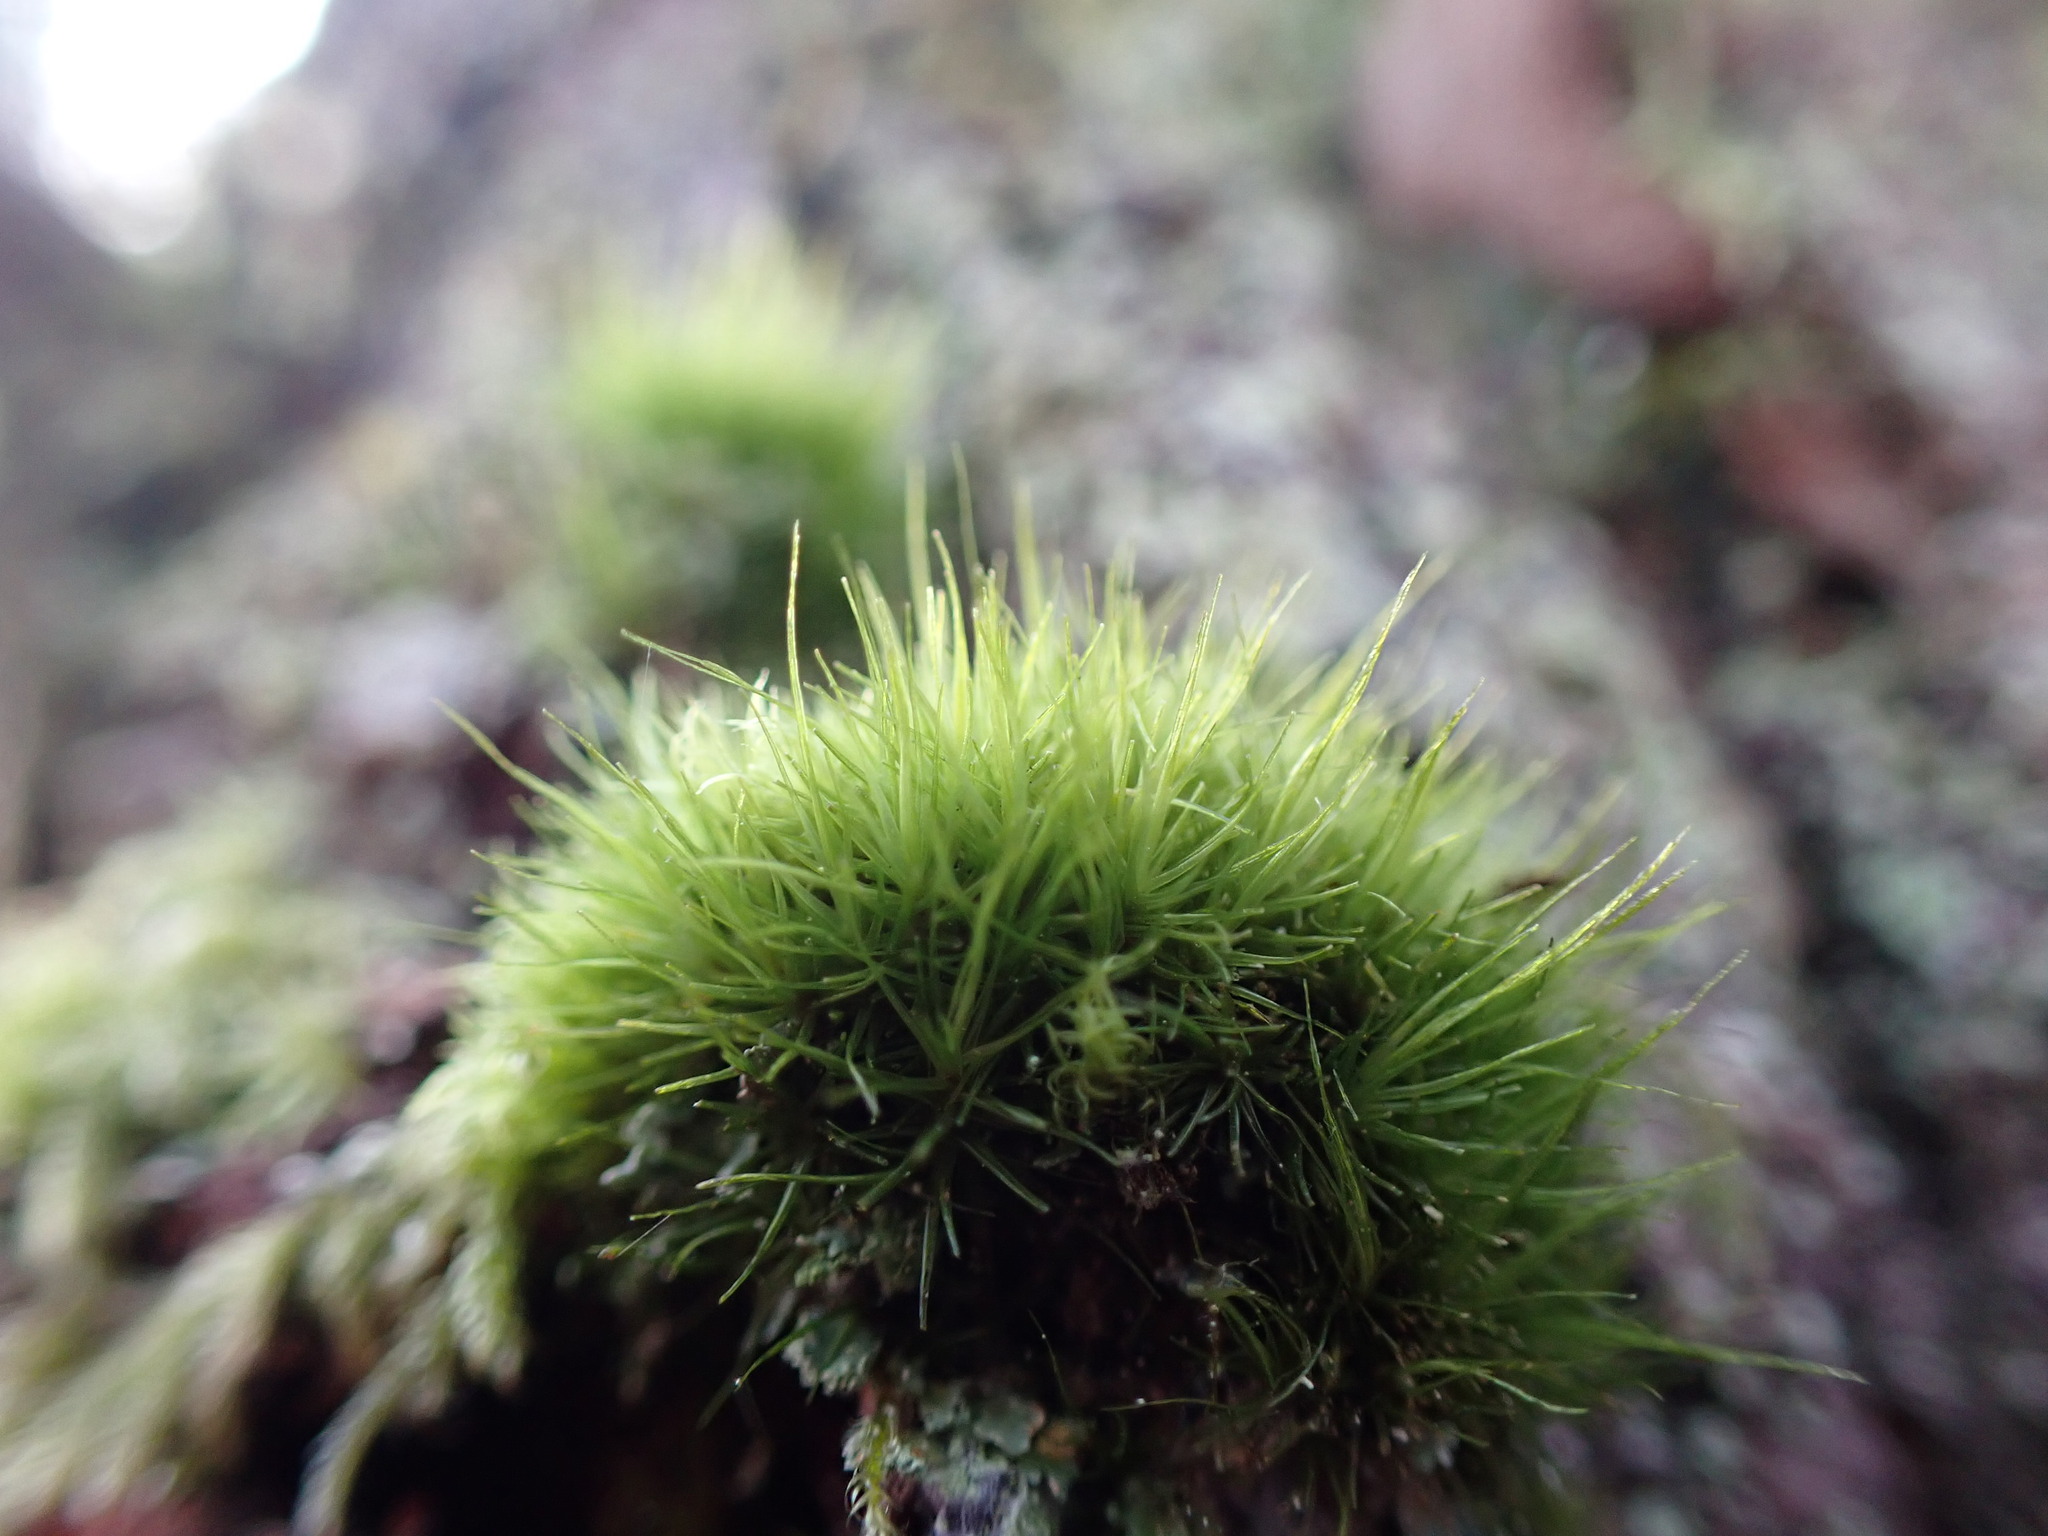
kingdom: Plantae
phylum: Bryophyta
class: Bryopsida
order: Dicranales
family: Dicranaceae
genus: Orthodicranum
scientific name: Orthodicranum tauricum
